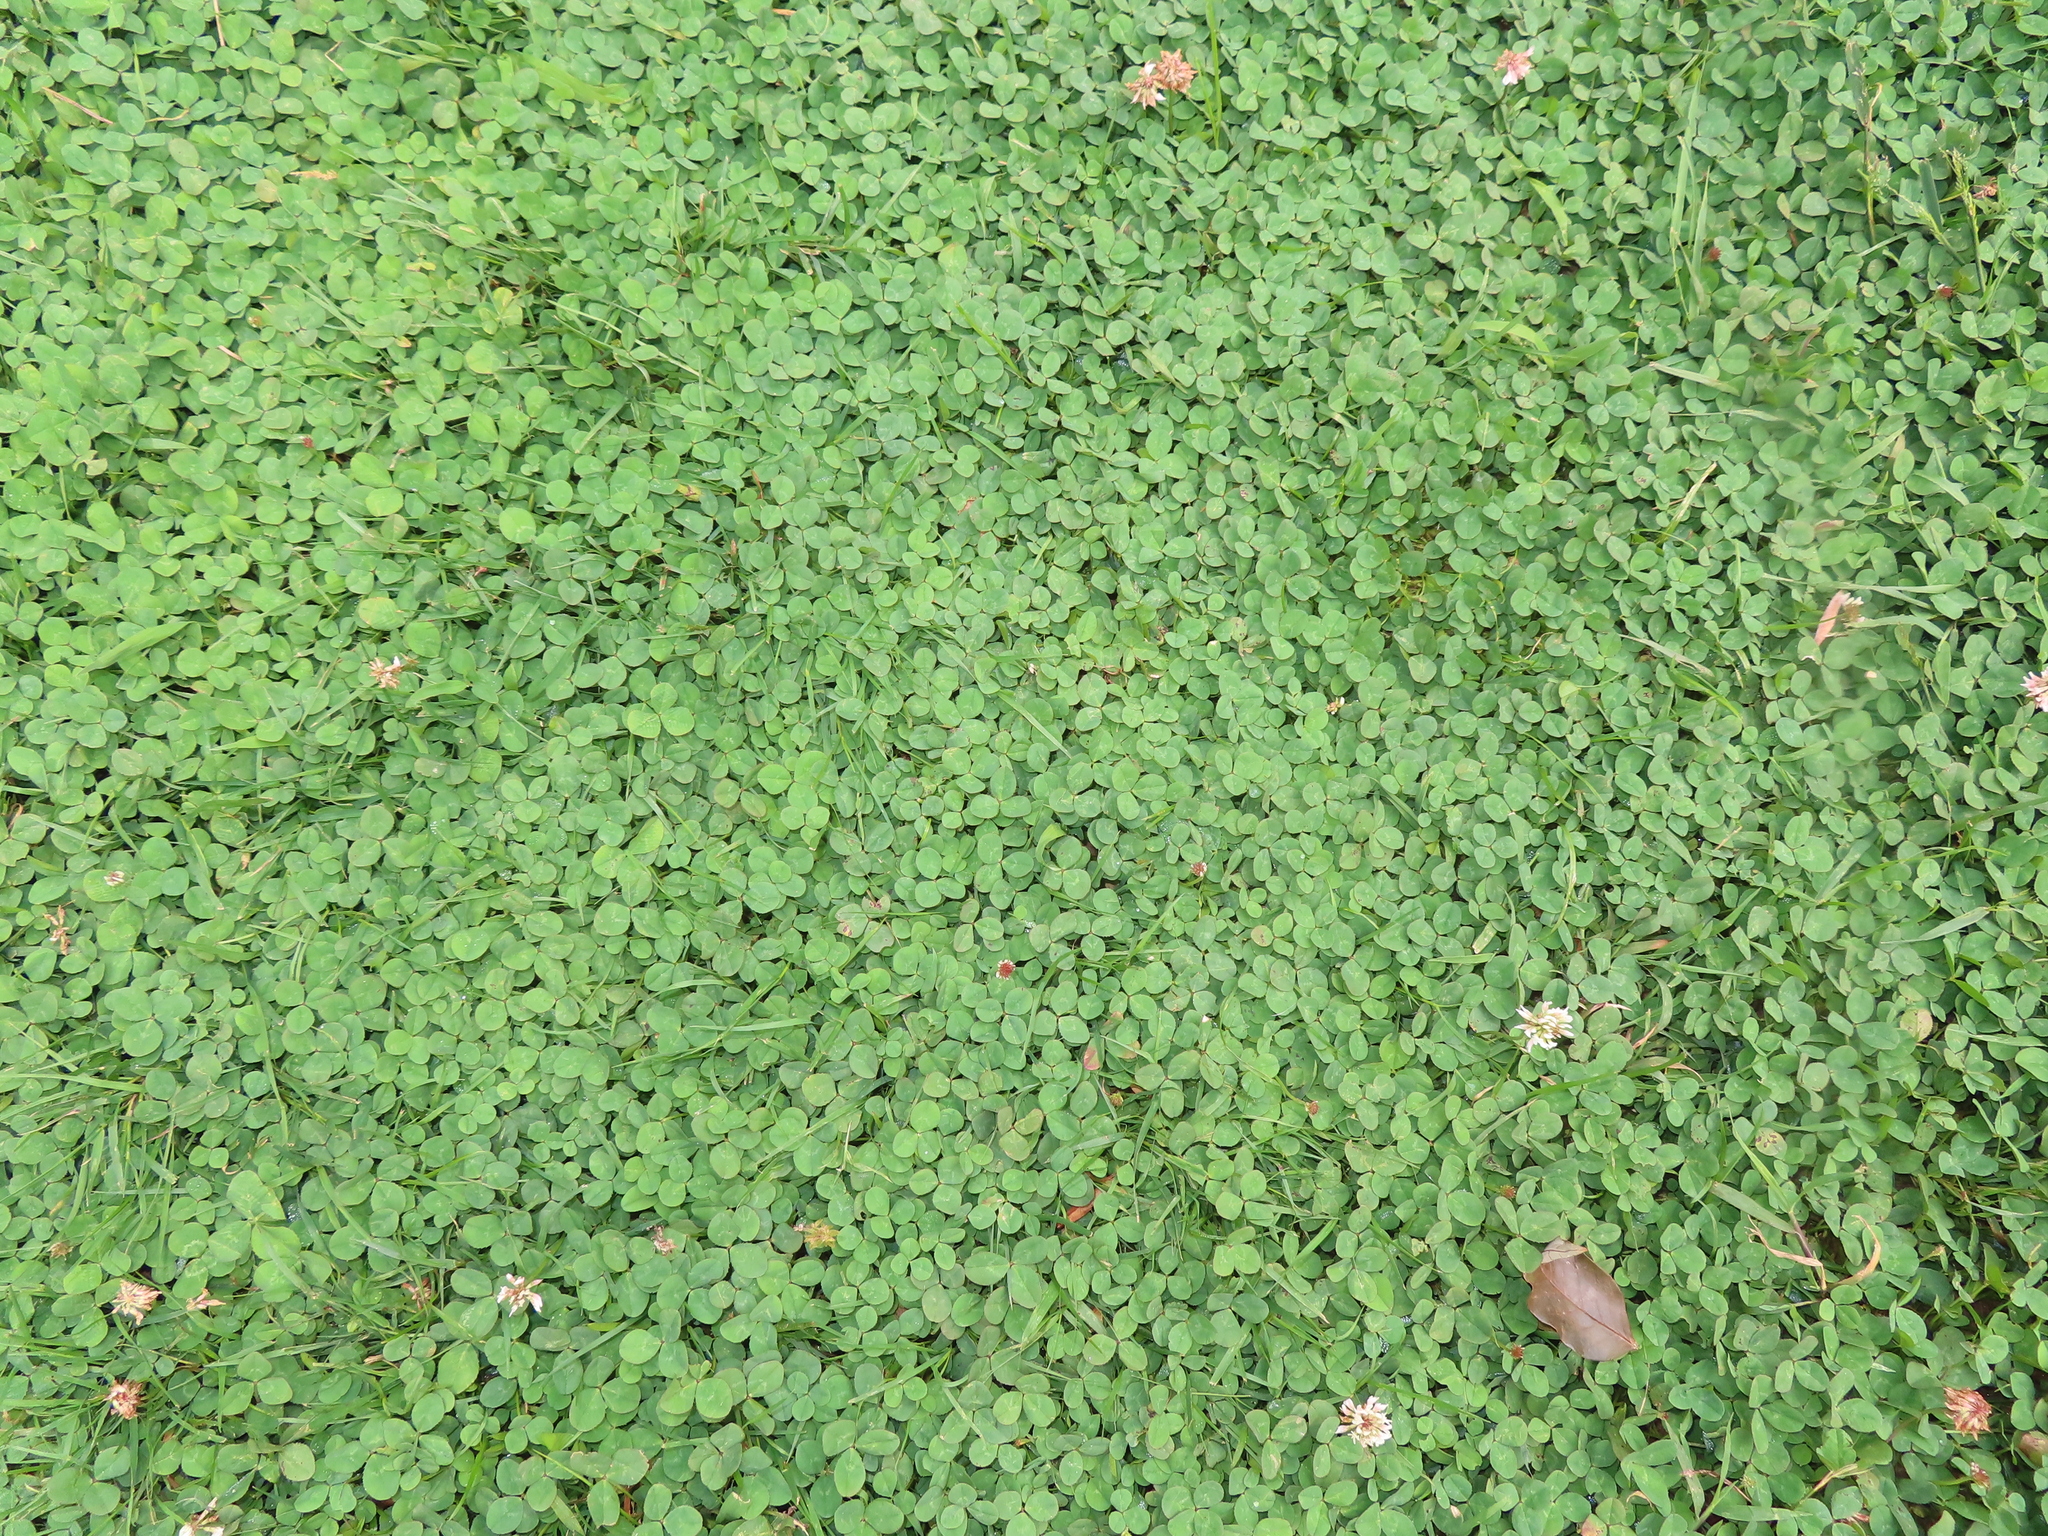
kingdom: Plantae
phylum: Tracheophyta
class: Magnoliopsida
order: Fabales
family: Fabaceae
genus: Trifolium
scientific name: Trifolium repens
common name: White clover
